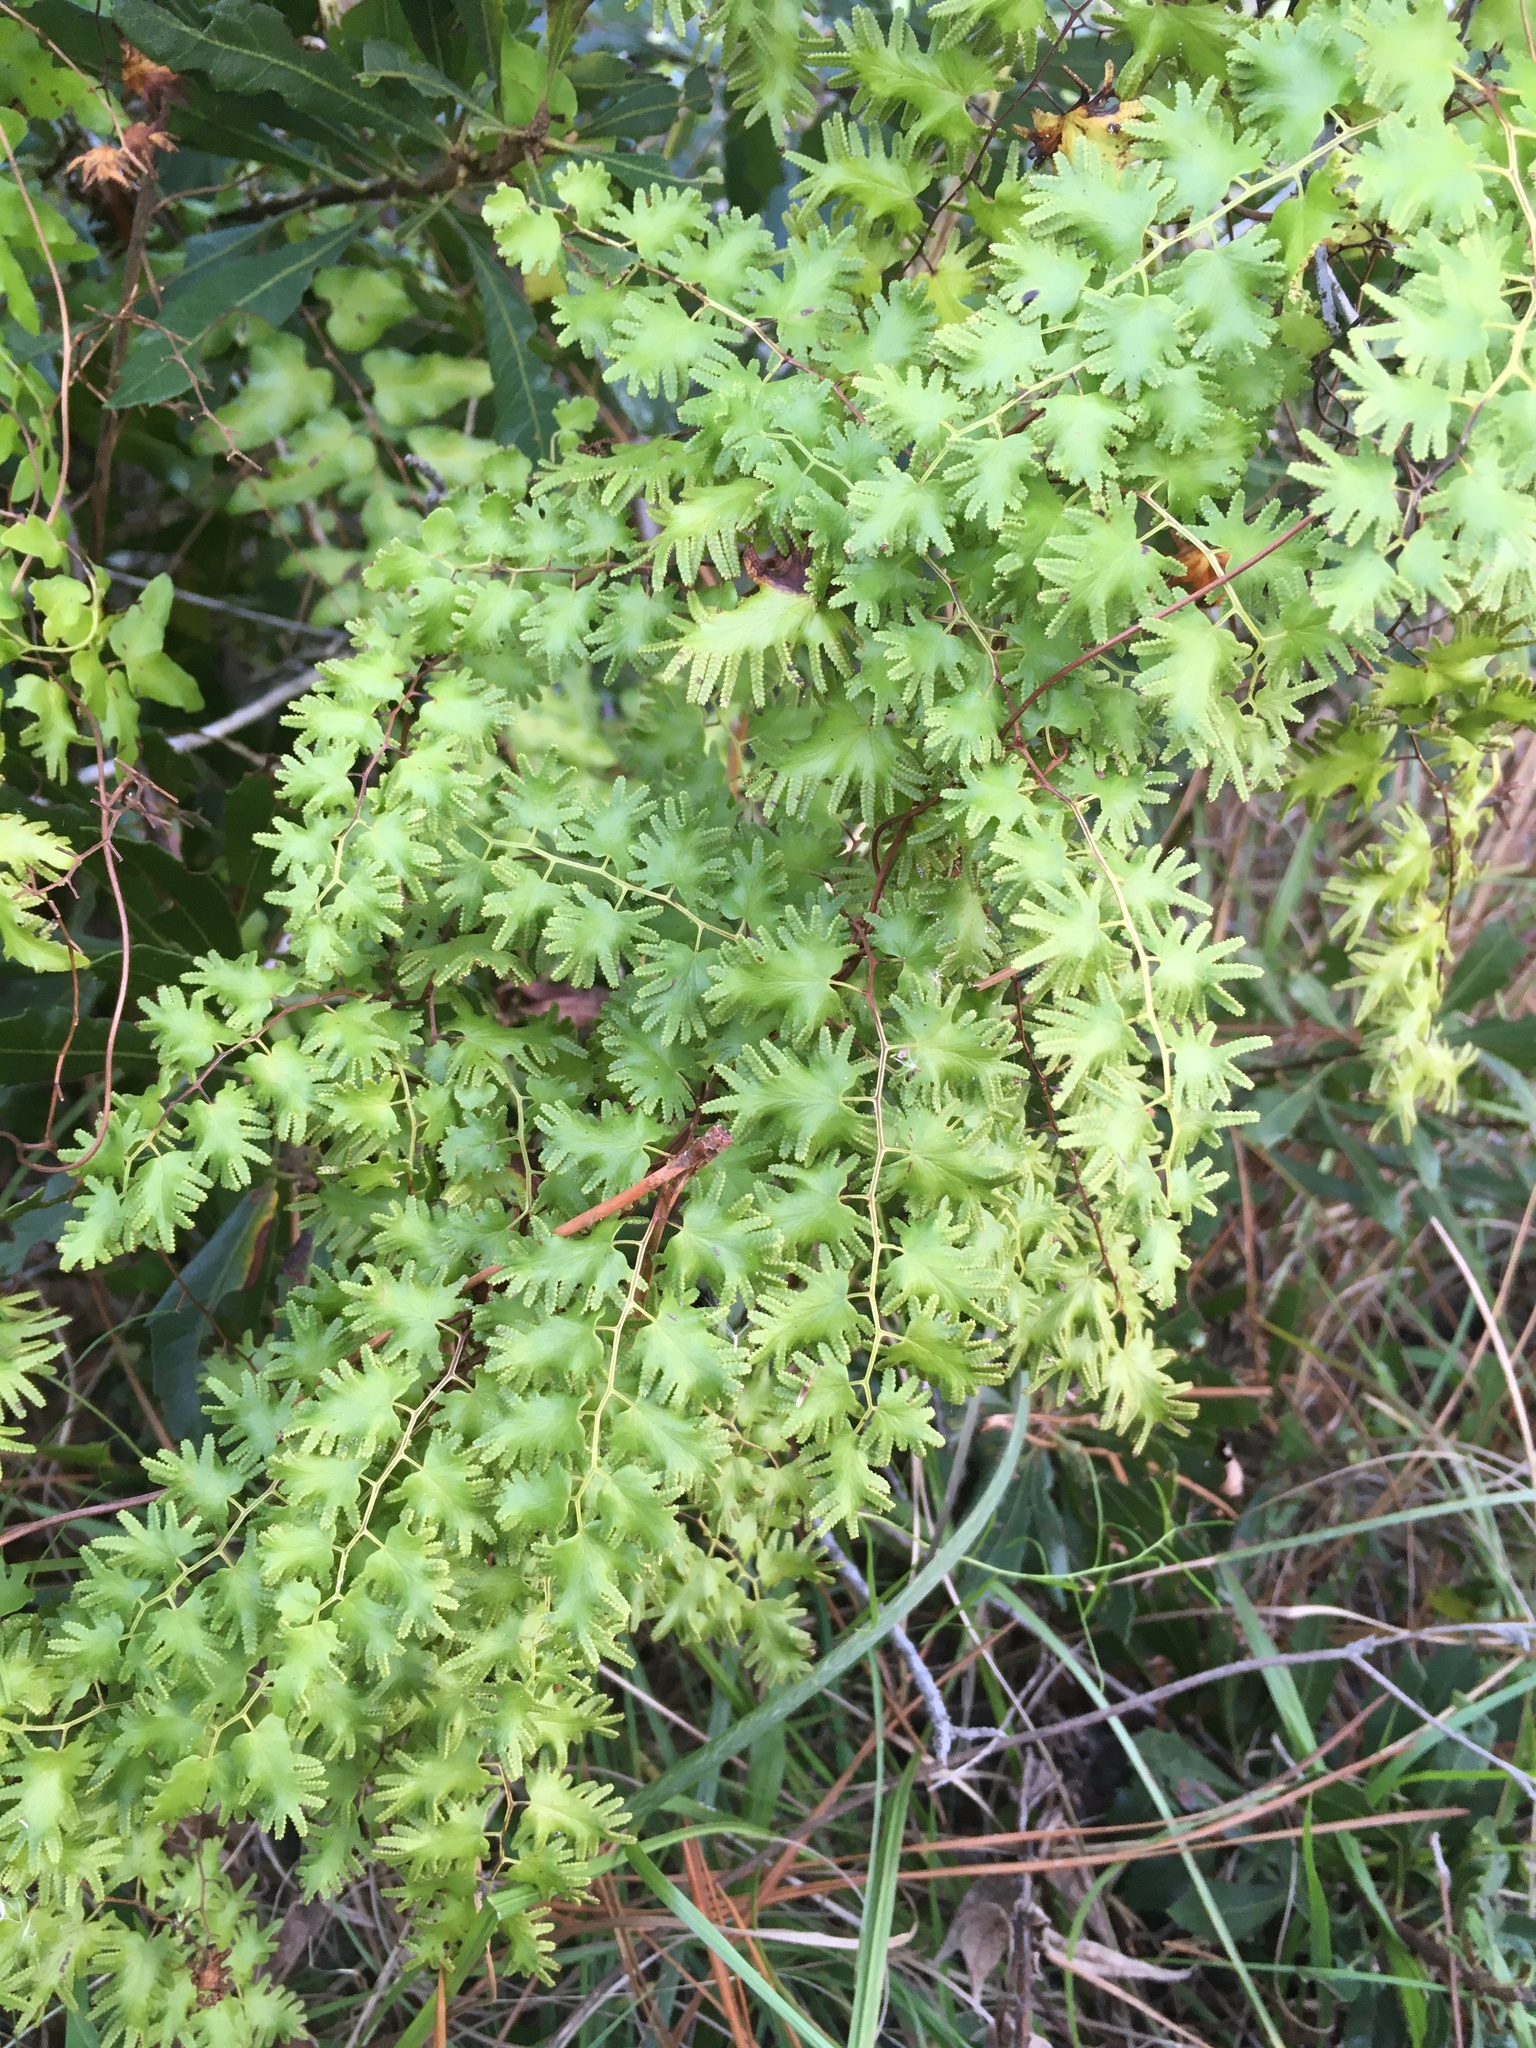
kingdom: Plantae
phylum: Tracheophyta
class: Polypodiopsida
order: Schizaeales
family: Lygodiaceae
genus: Lygodium
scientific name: Lygodium microphyllum
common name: Small-leaf climbing fern
